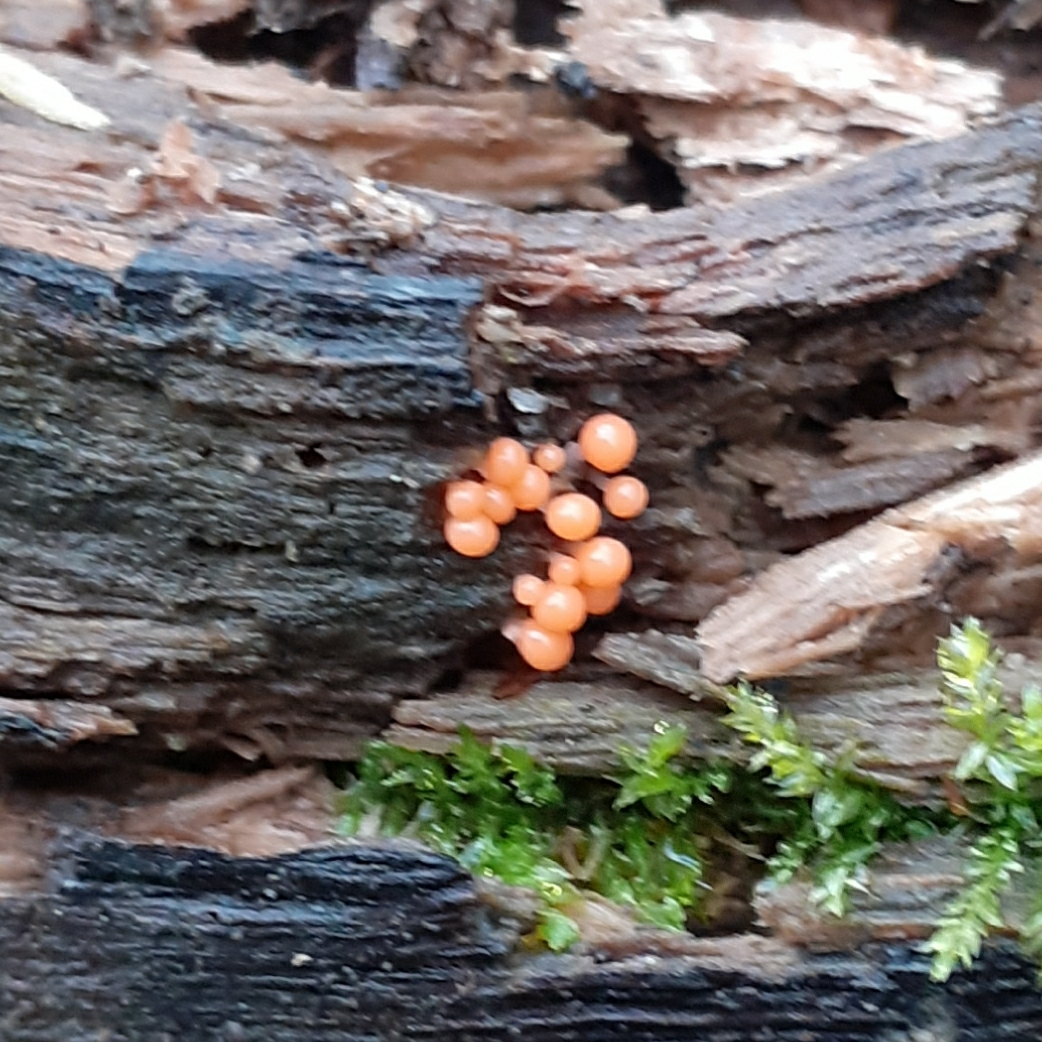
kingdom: Protozoa
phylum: Mycetozoa
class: Myxomycetes
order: Trichiales
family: Arcyriaceae
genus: Hemitrichia
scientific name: Hemitrichia decipiens
